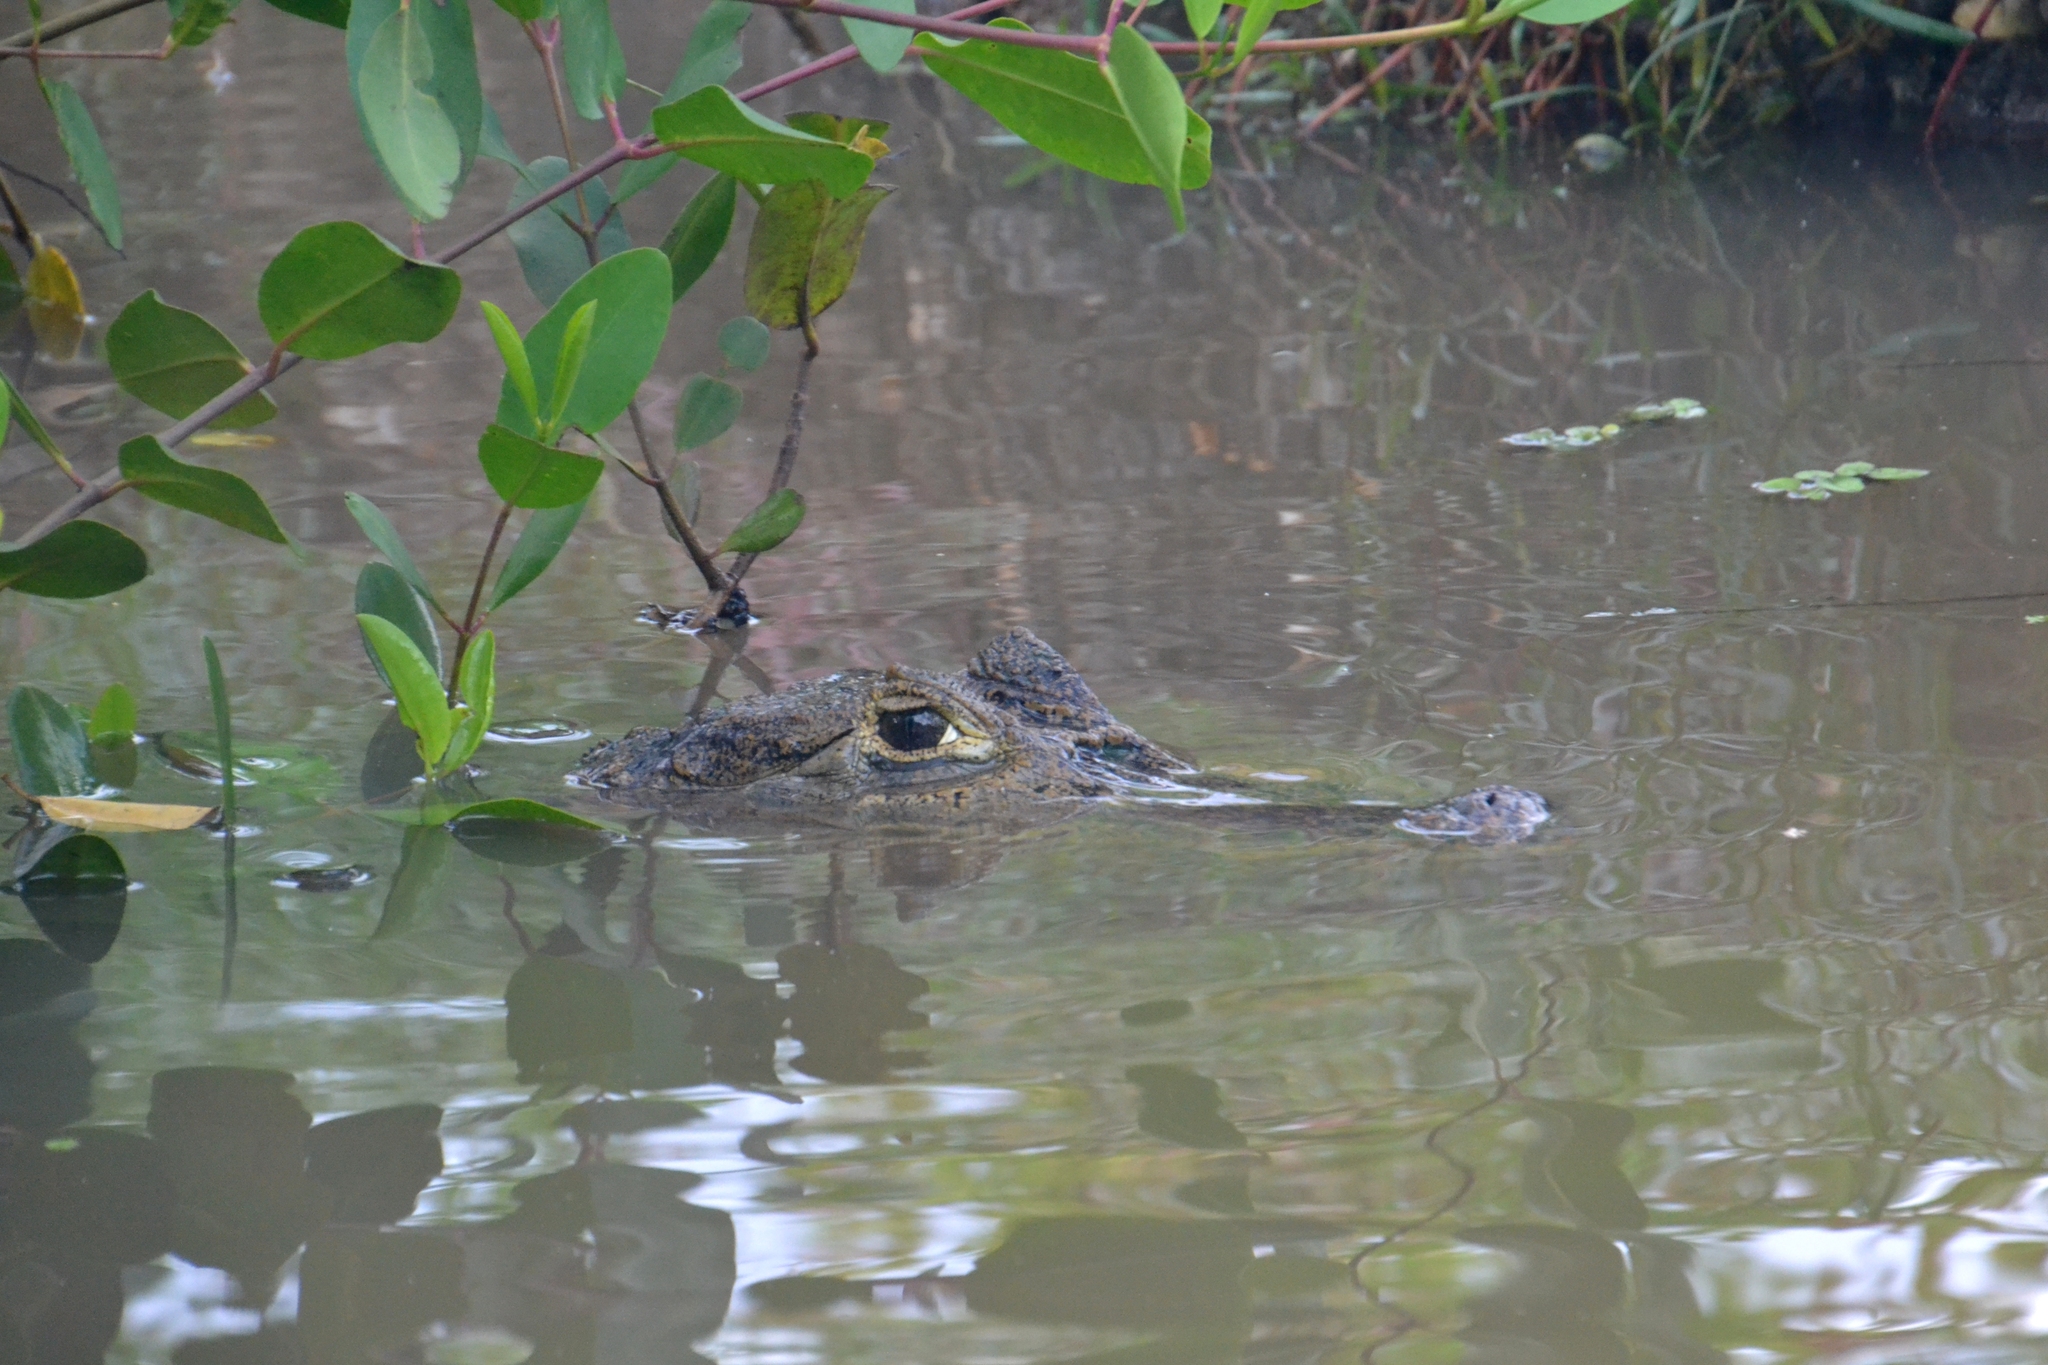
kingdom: Animalia
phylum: Chordata
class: Crocodylia
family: Alligatoridae
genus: Caiman
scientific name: Caiman crocodilus
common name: Common caiman
